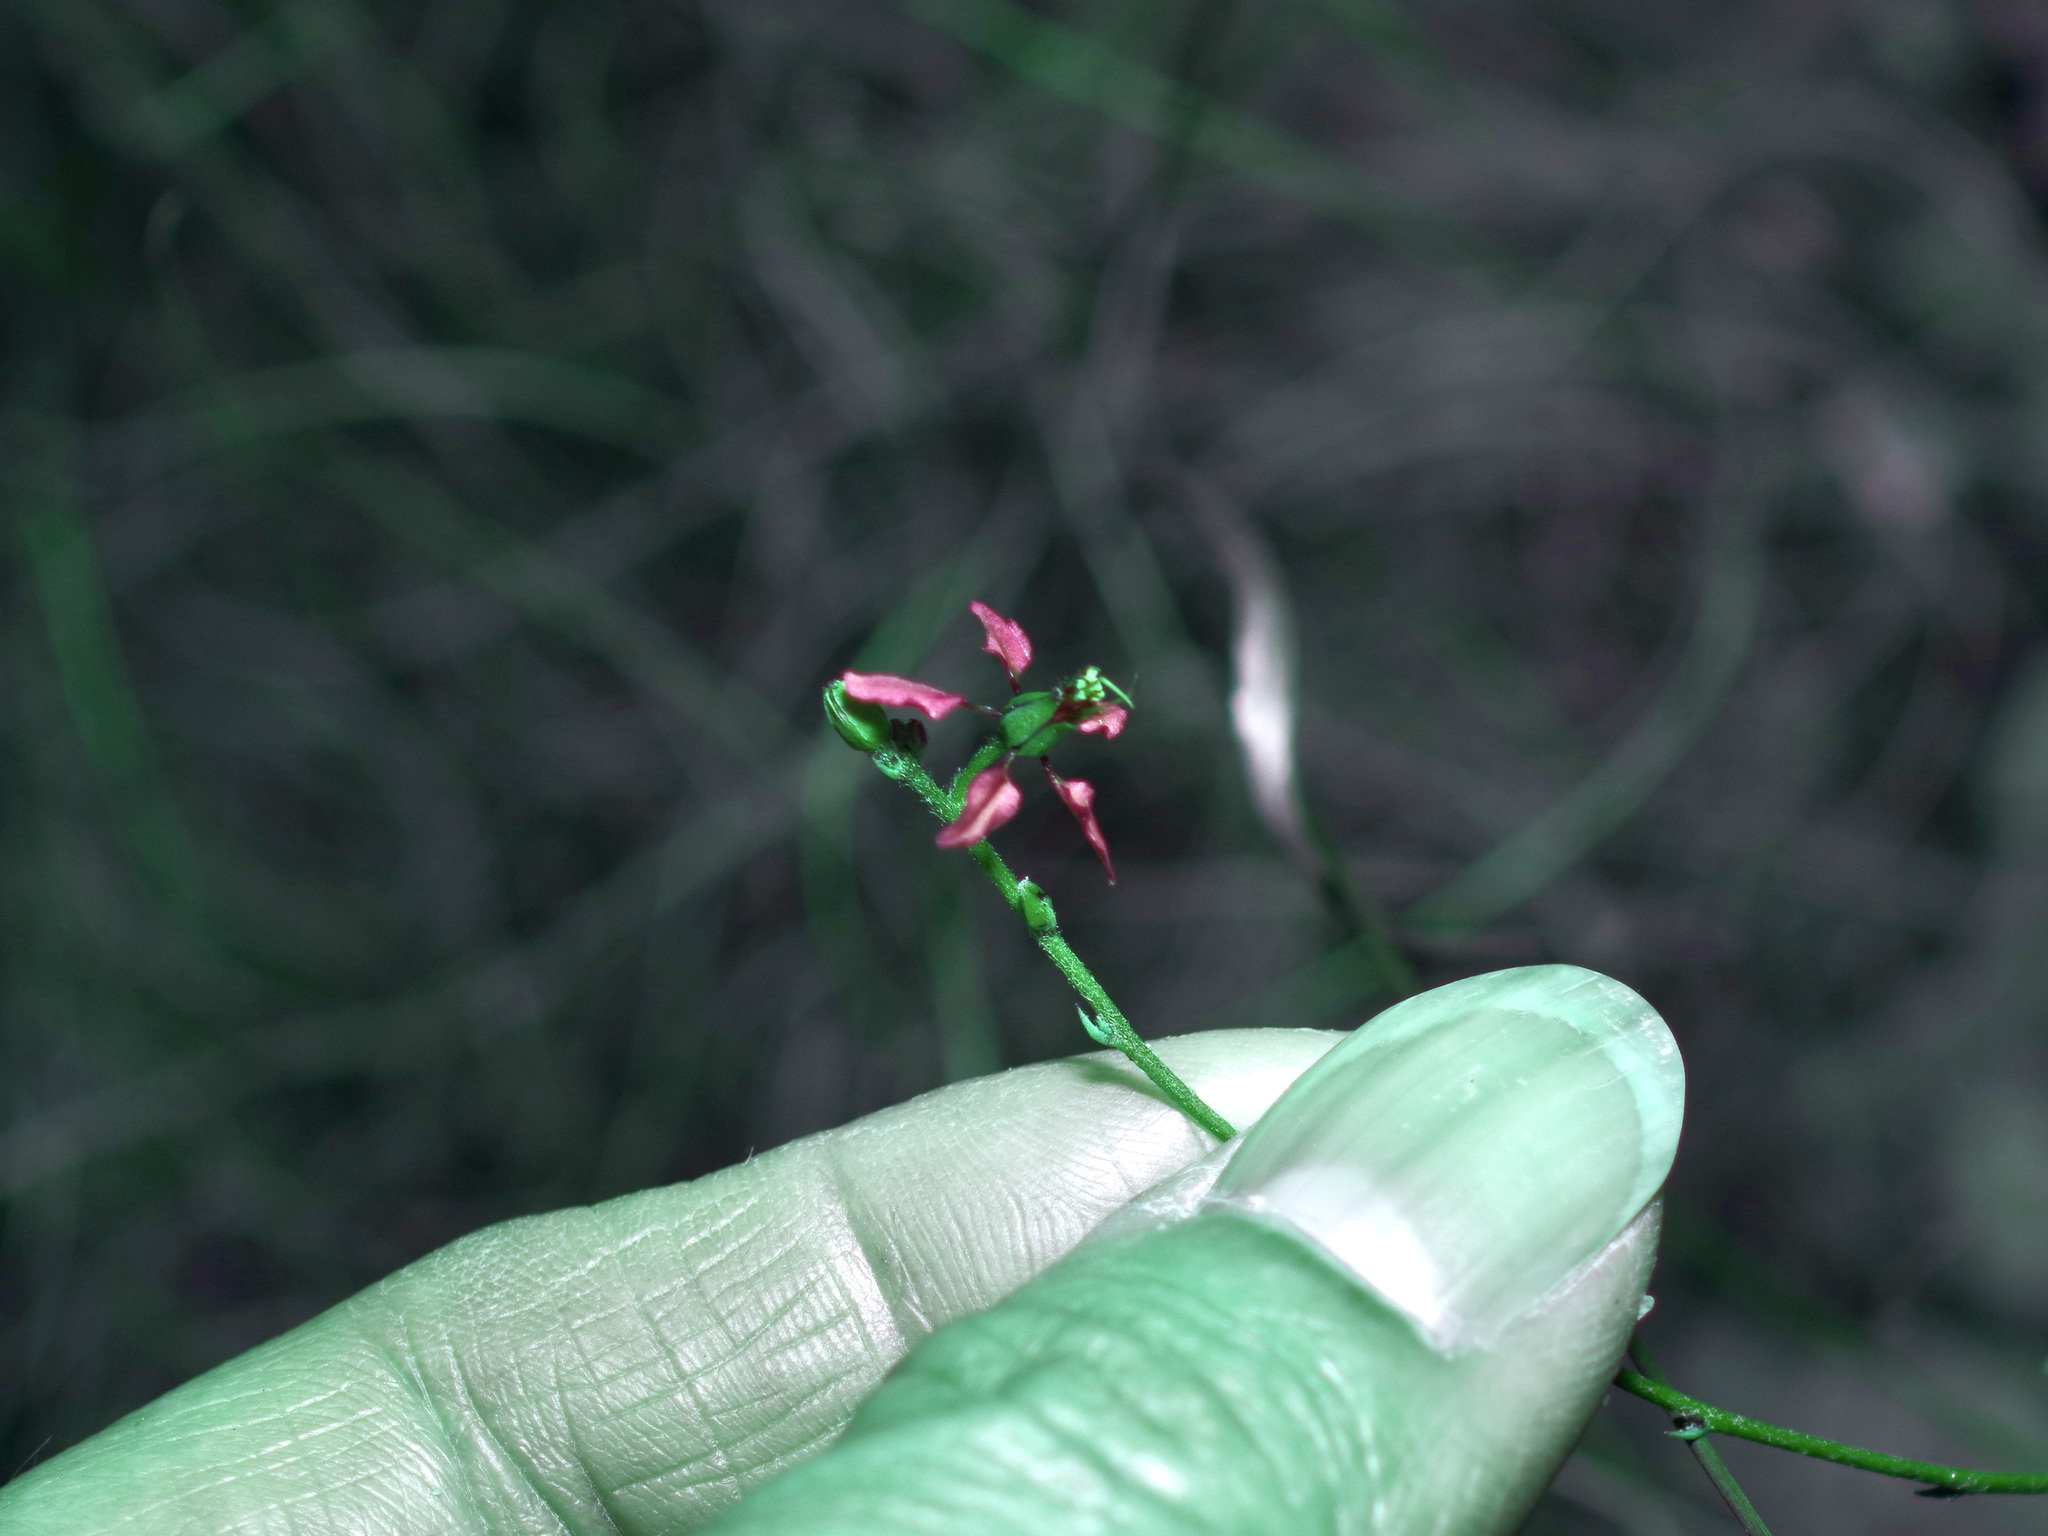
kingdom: Plantae
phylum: Tracheophyta
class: Magnoliopsida
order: Malpighiales
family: Malpighiaceae
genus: Galphimia
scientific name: Galphimia angustifolia
